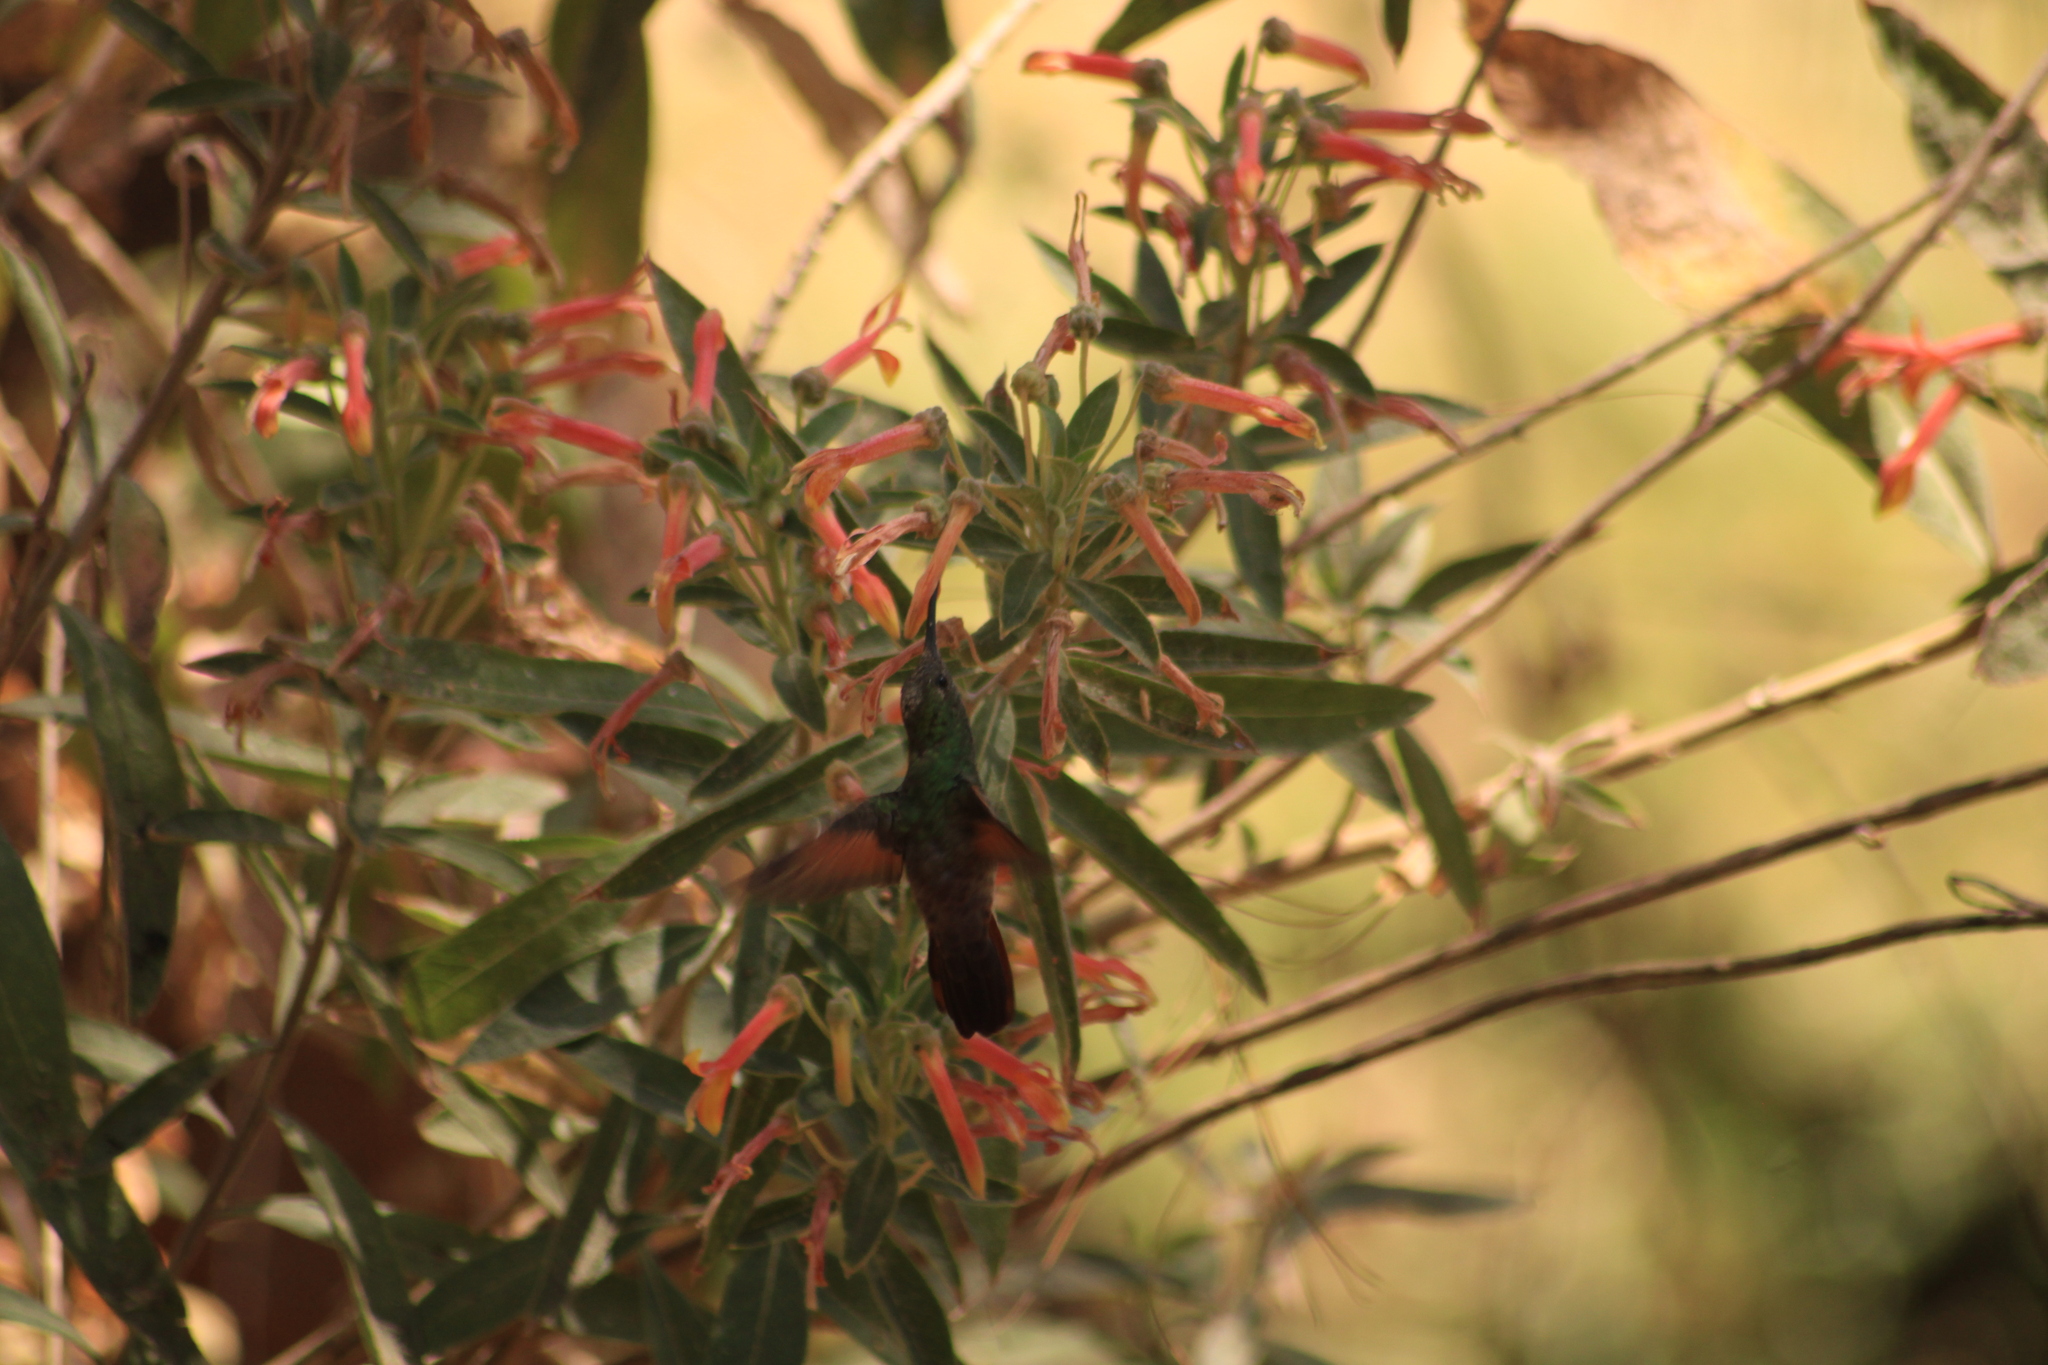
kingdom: Animalia
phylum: Chordata
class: Aves
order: Apodiformes
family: Trochilidae
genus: Saucerottia
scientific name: Saucerottia beryllina
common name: Berylline hummingbird
